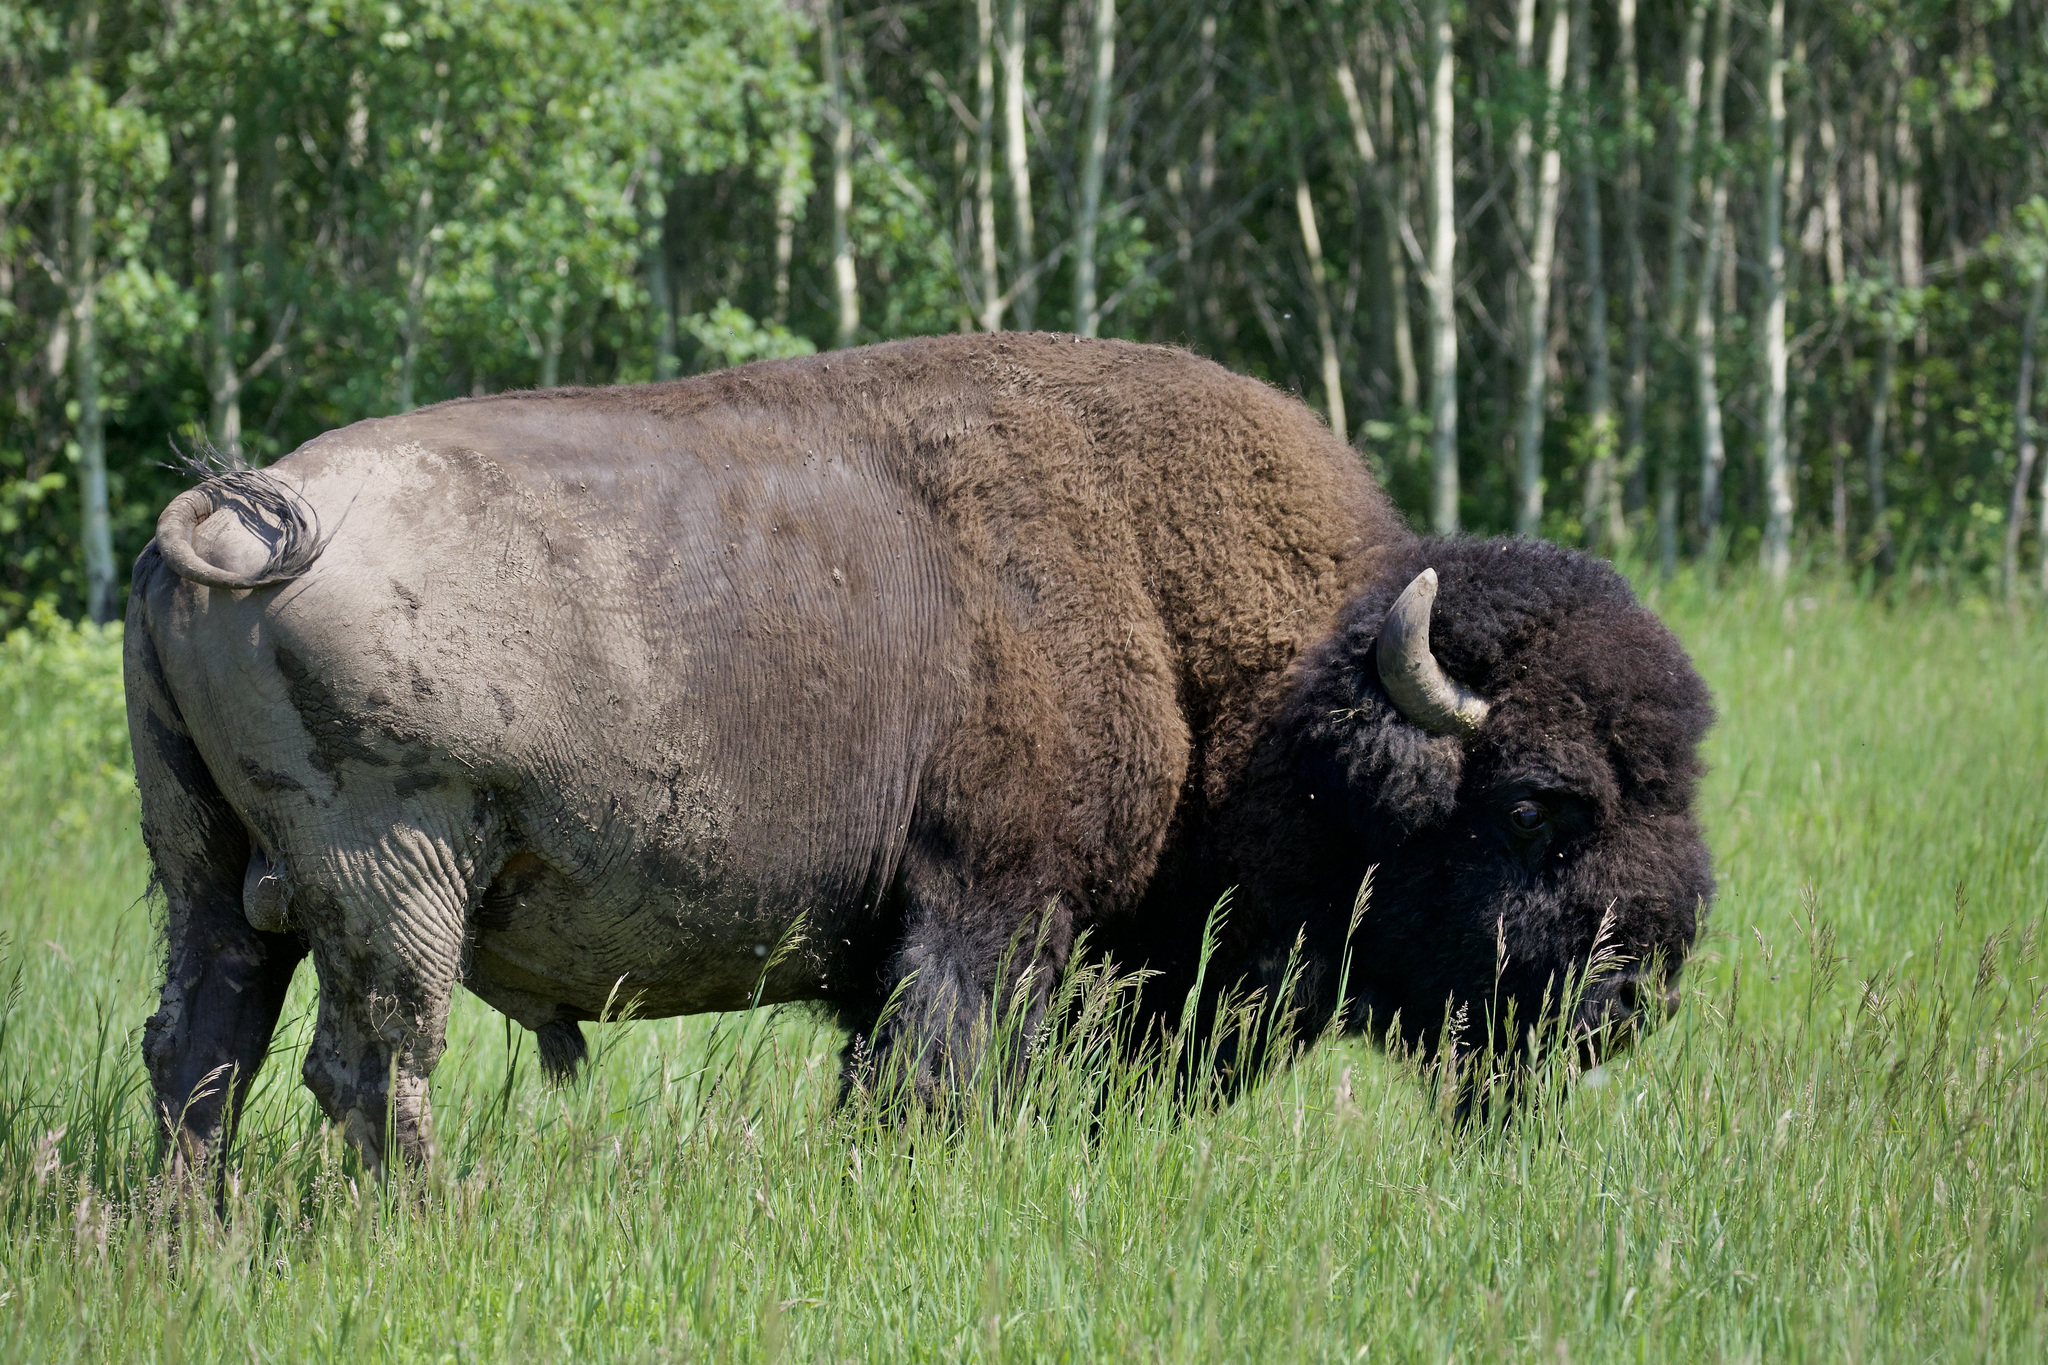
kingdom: Animalia
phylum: Chordata
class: Mammalia
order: Artiodactyla
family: Bovidae
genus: Bison
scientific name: Bison bison
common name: American bison
